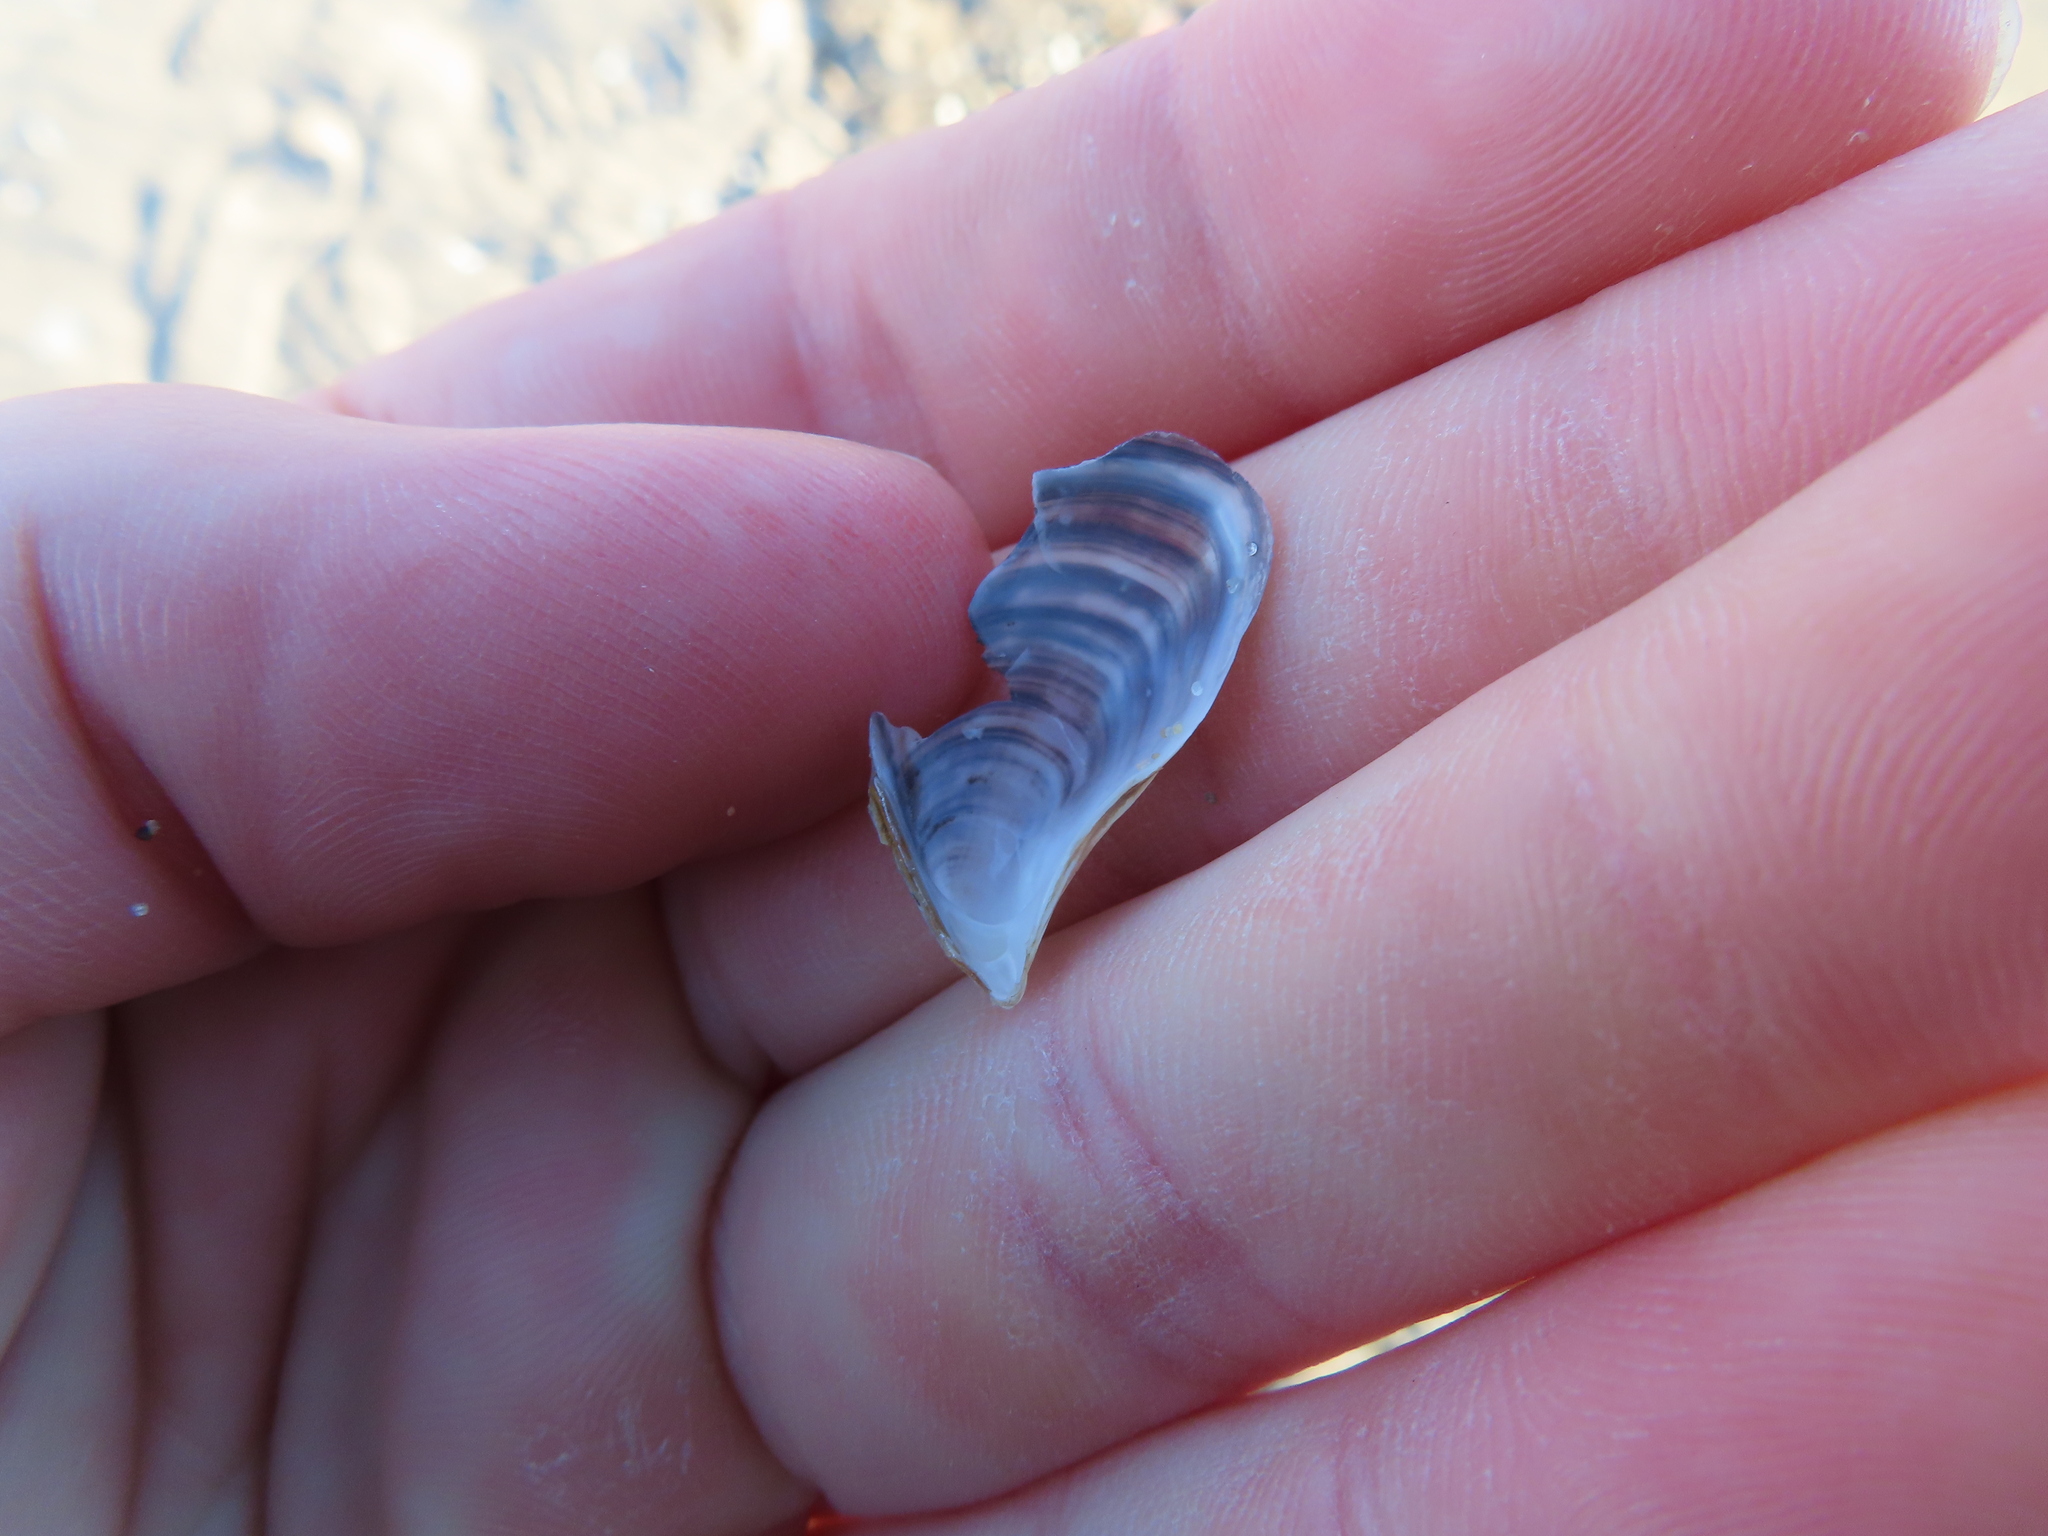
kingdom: Animalia
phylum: Mollusca
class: Bivalvia
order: Myida
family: Dreissenidae
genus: Dreissena
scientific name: Dreissena bugensis
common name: Quagga mussel
